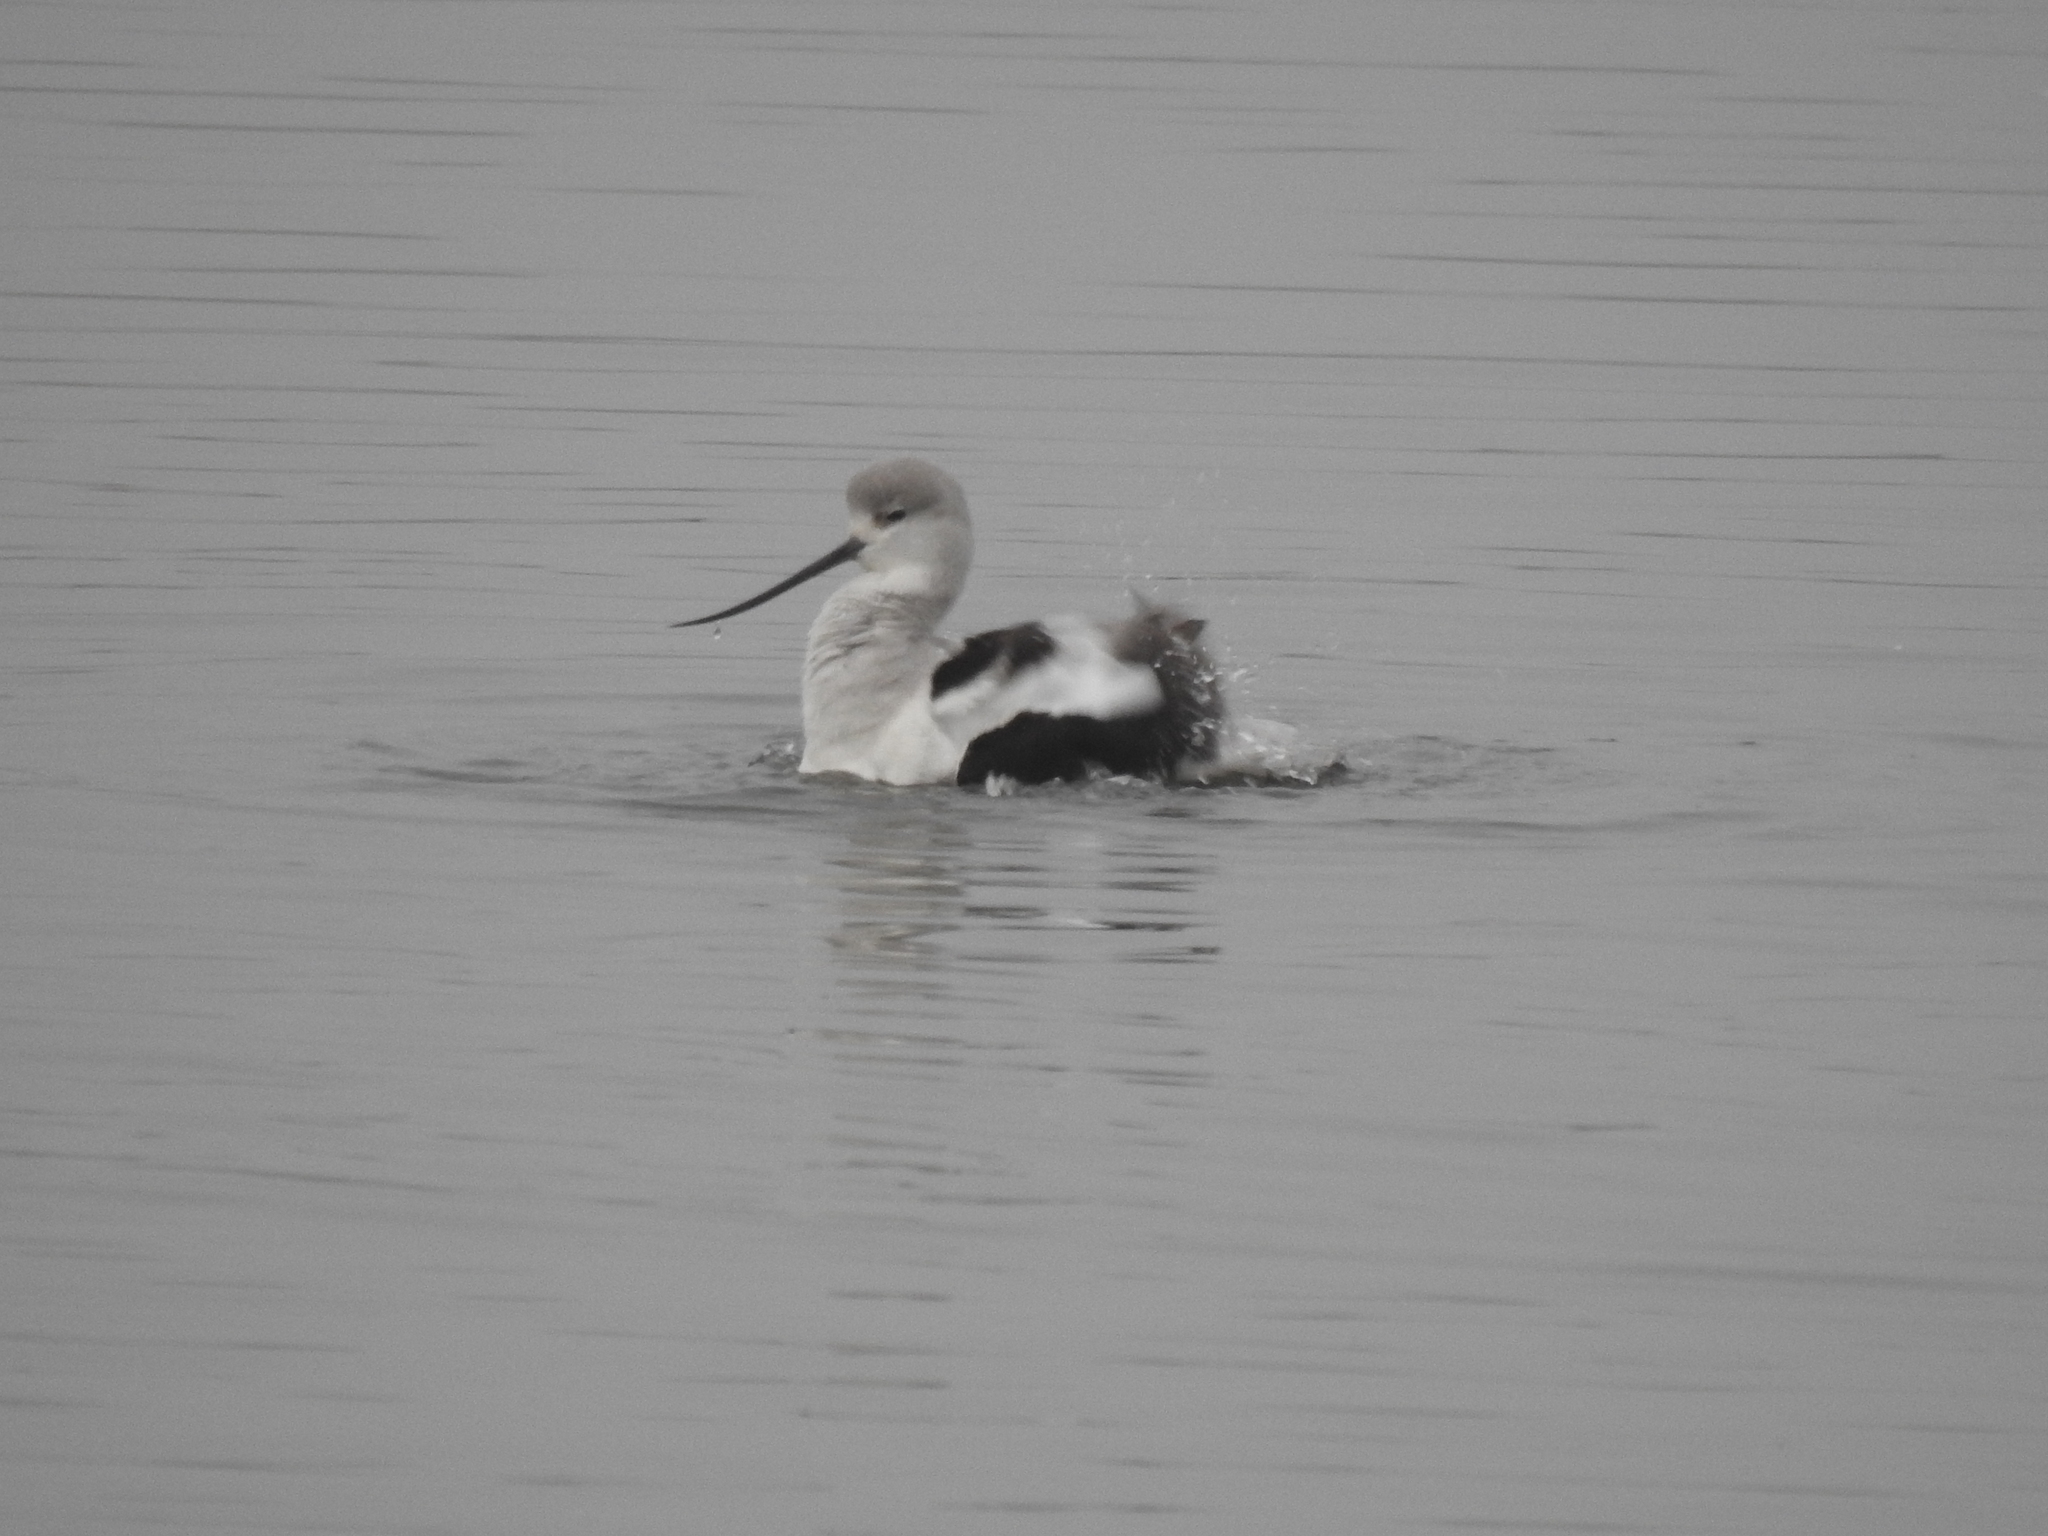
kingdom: Animalia
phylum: Chordata
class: Aves
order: Charadriiformes
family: Recurvirostridae
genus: Recurvirostra
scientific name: Recurvirostra americana
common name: American avocet
